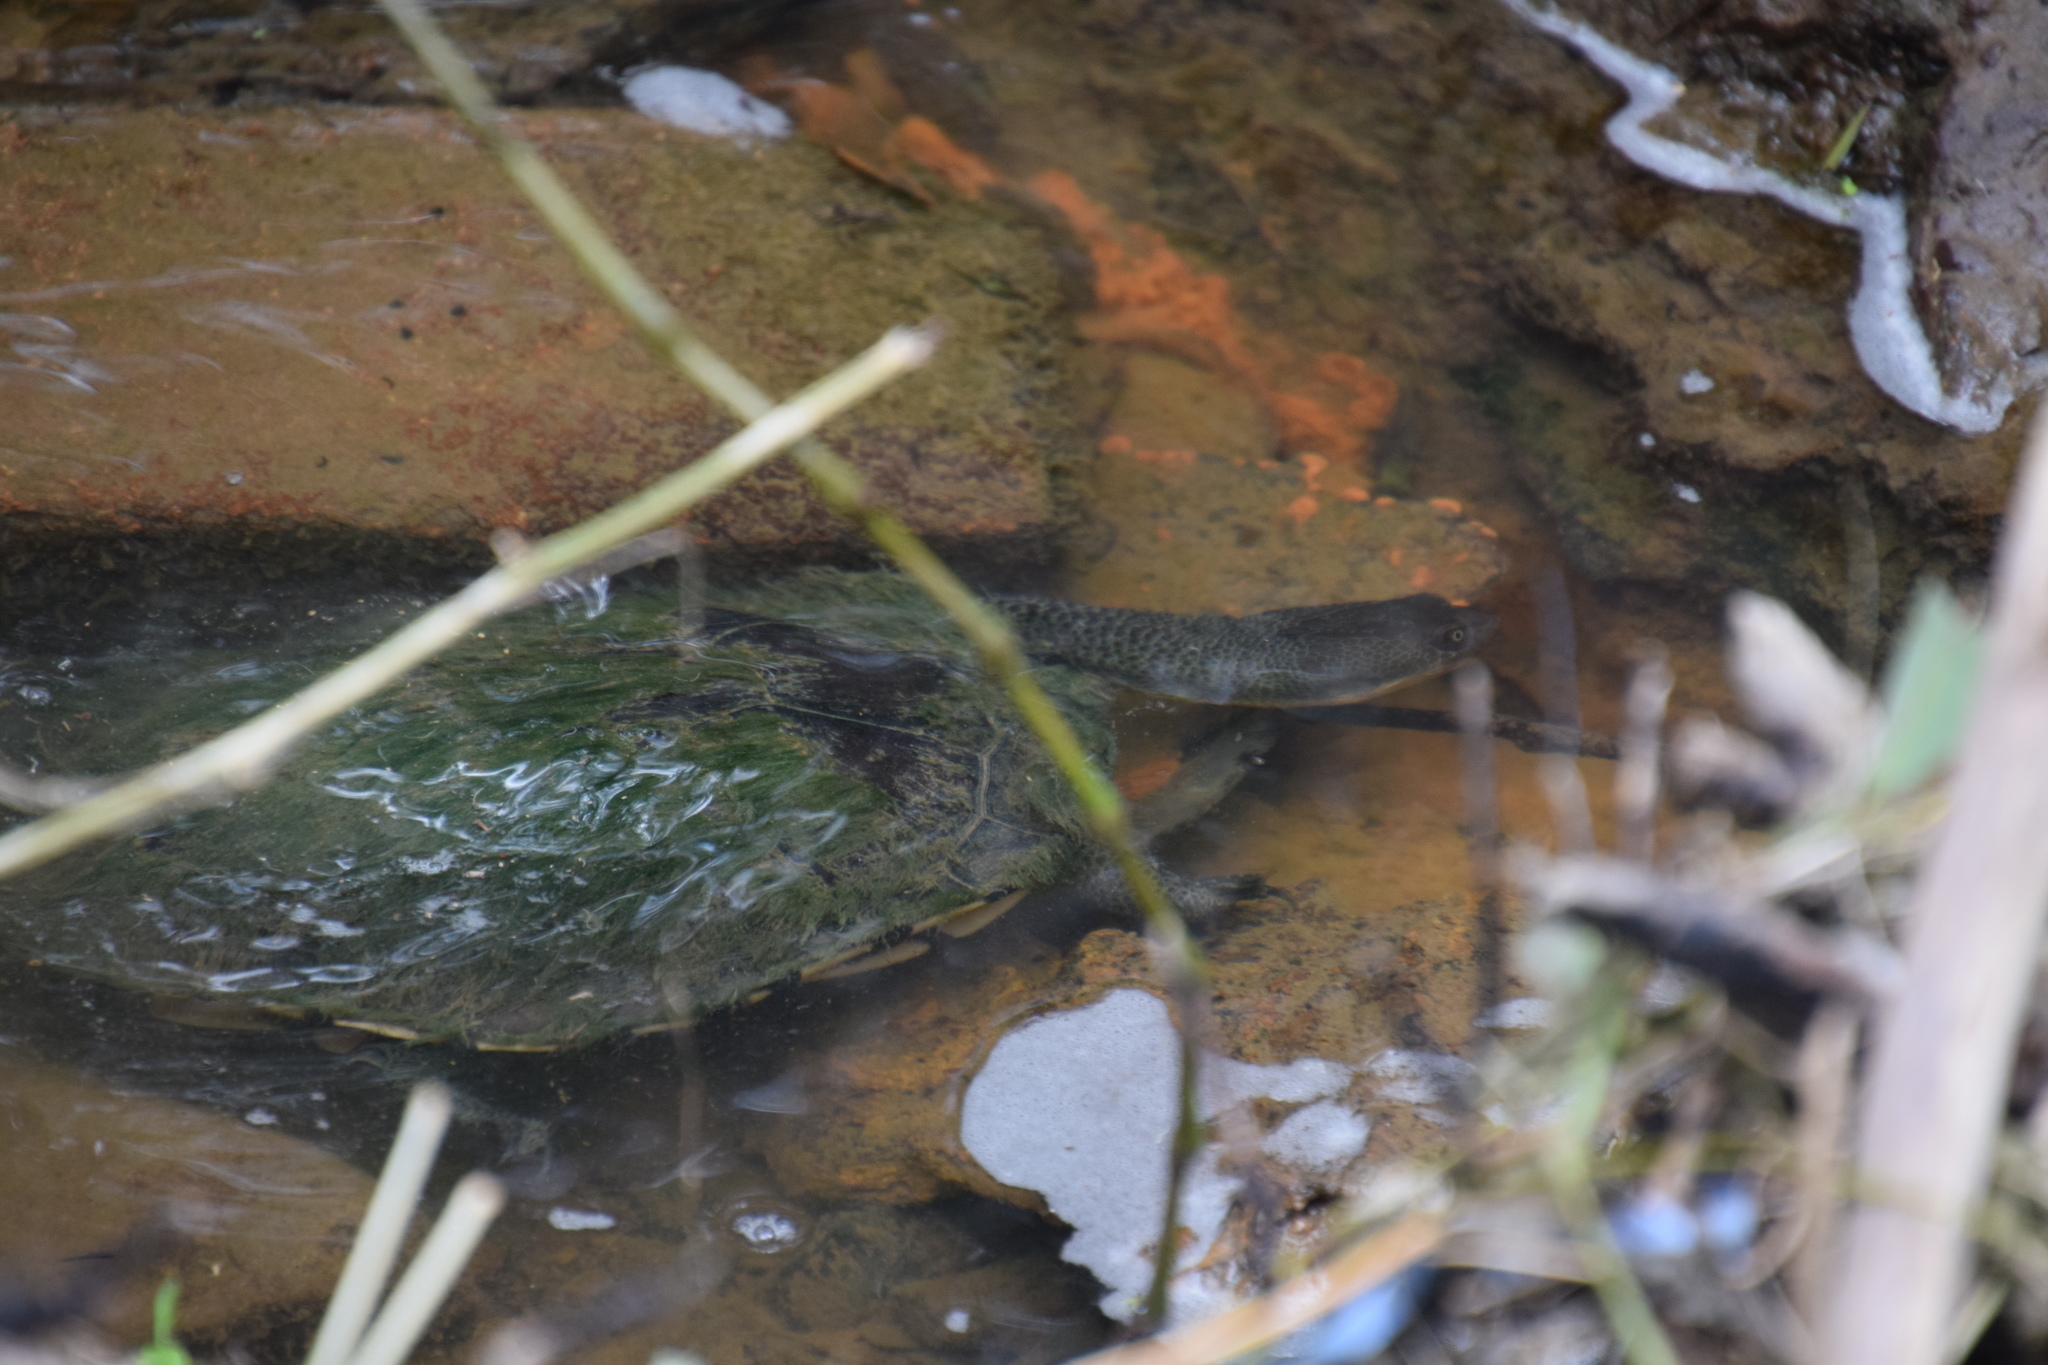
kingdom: Animalia
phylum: Chordata
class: Testudines
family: Chelidae
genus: Chelodina
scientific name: Chelodina longicollis
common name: Eastern snake-necked turtle
